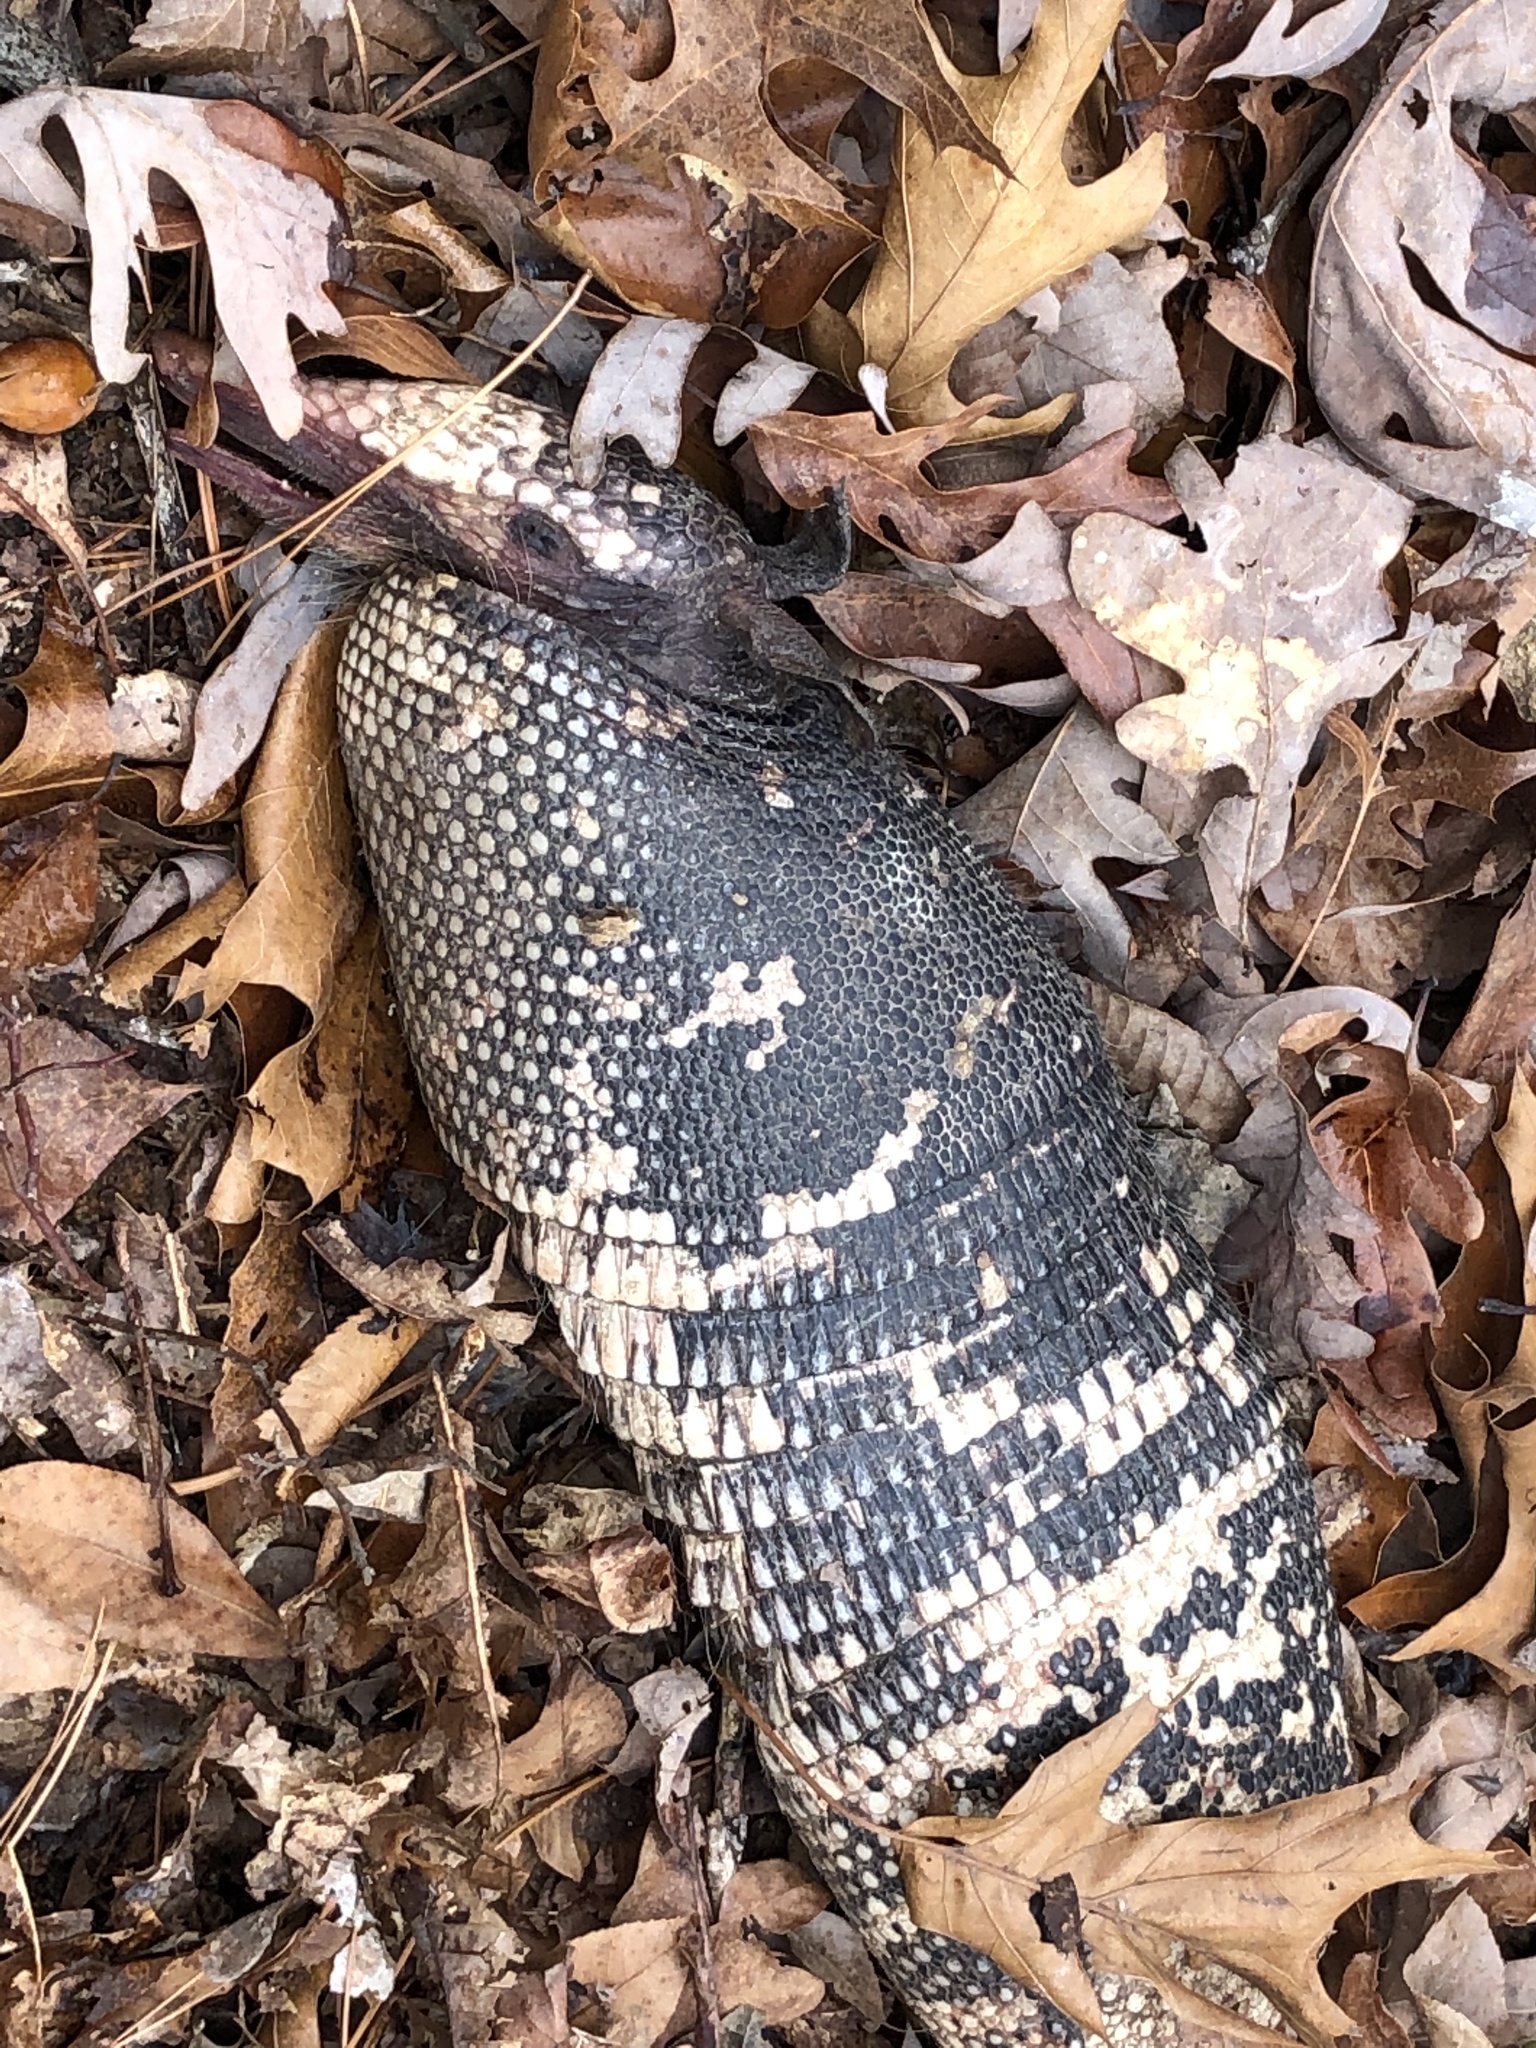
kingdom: Animalia
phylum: Chordata
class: Mammalia
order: Cingulata
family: Dasypodidae
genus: Dasypus
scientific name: Dasypus novemcinctus
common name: Nine-banded armadillo
